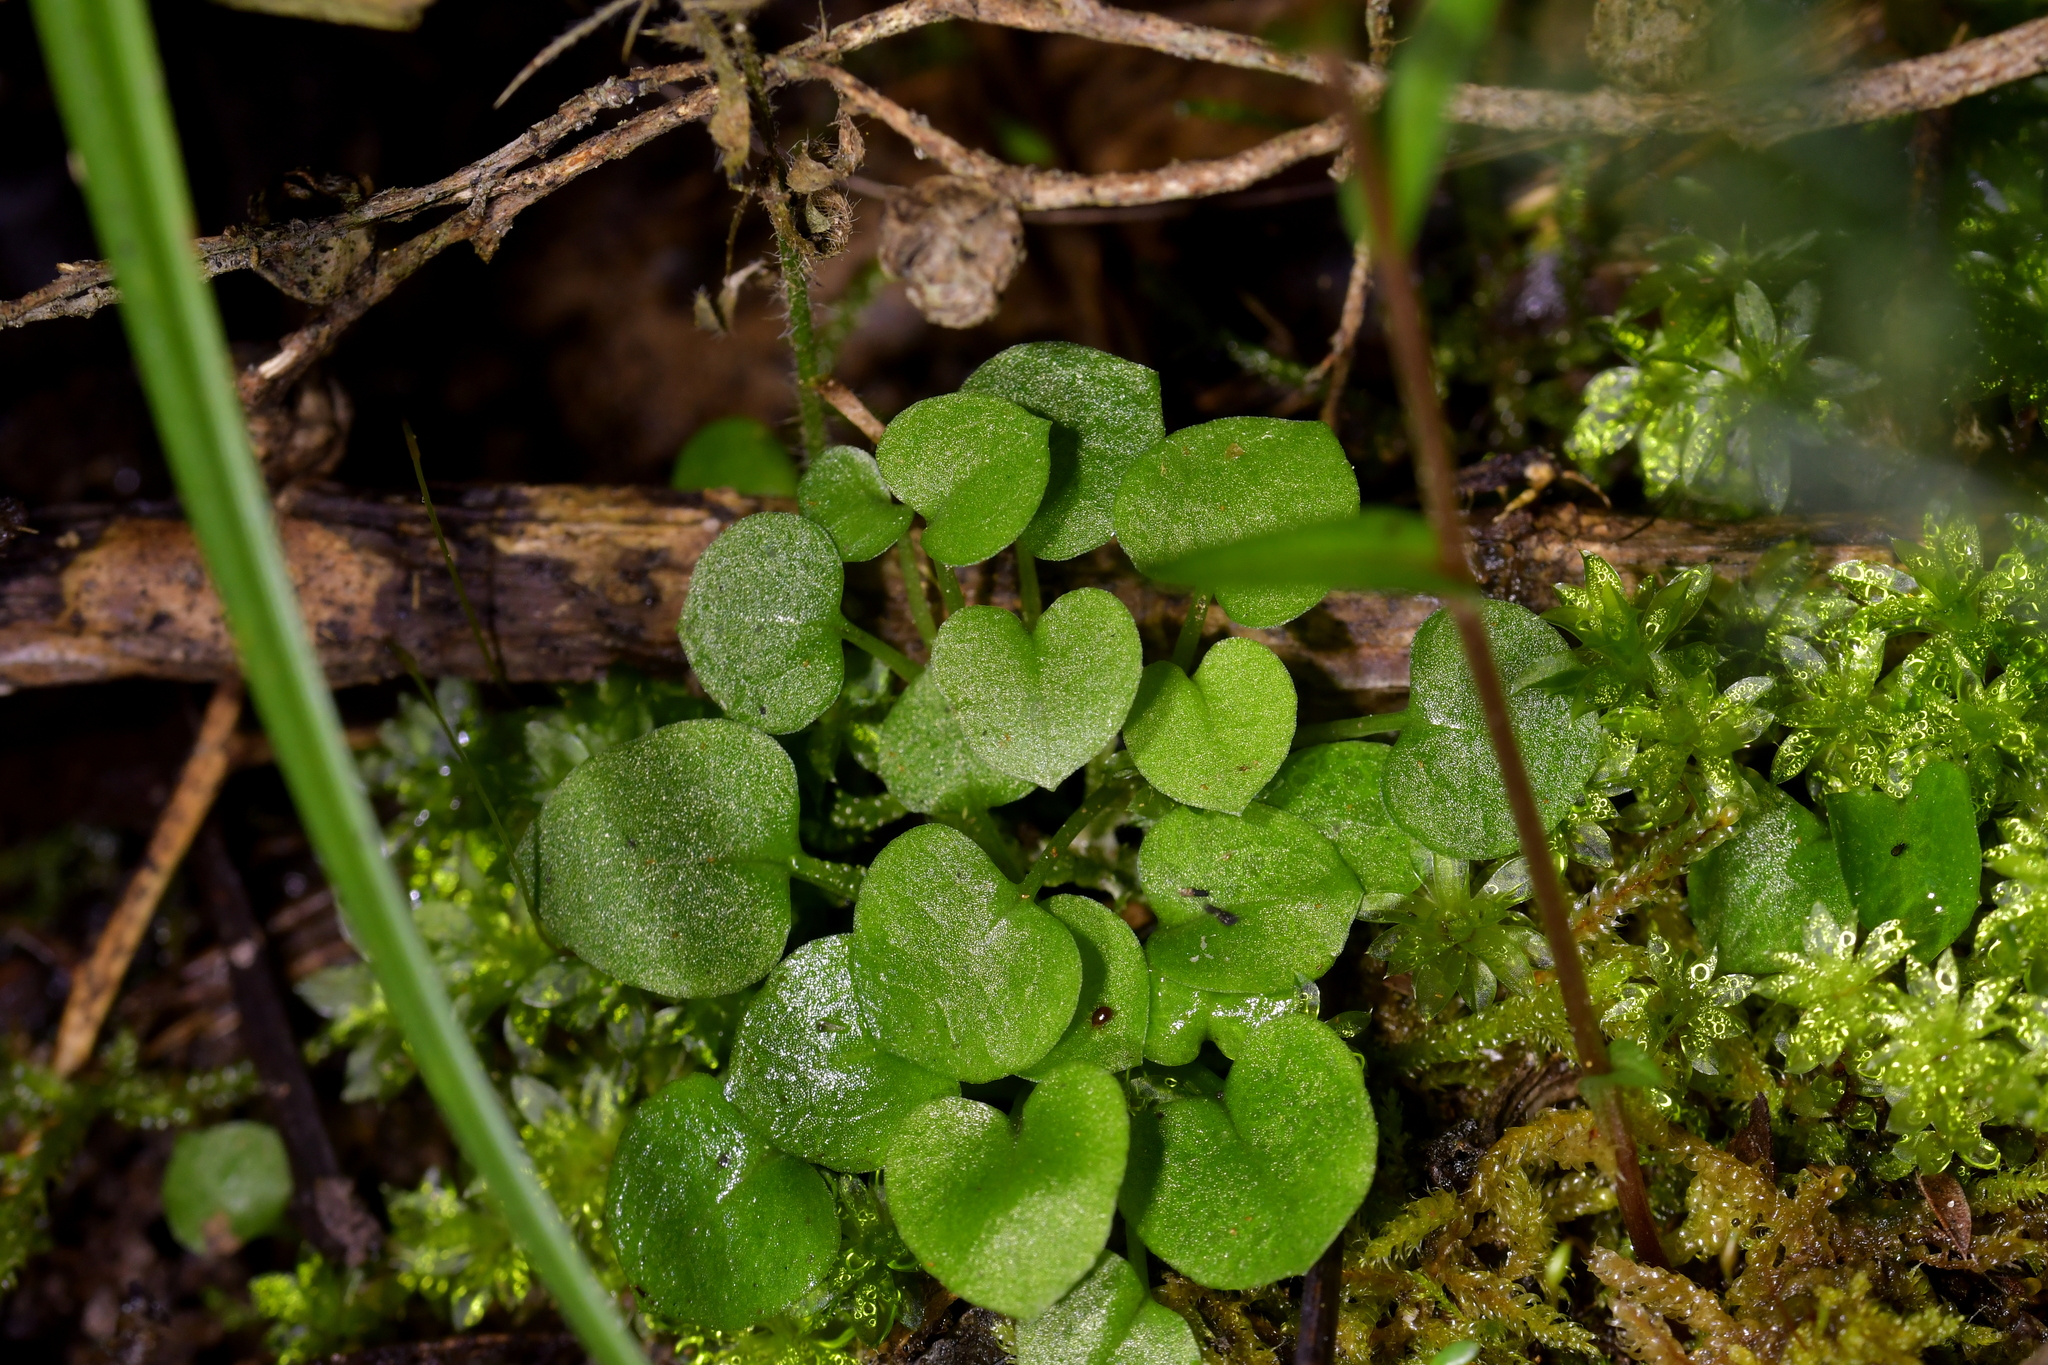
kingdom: Plantae
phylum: Tracheophyta
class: Liliopsida
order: Asparagales
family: Orchidaceae
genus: Pterostylis
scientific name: Pterostylis alobula
